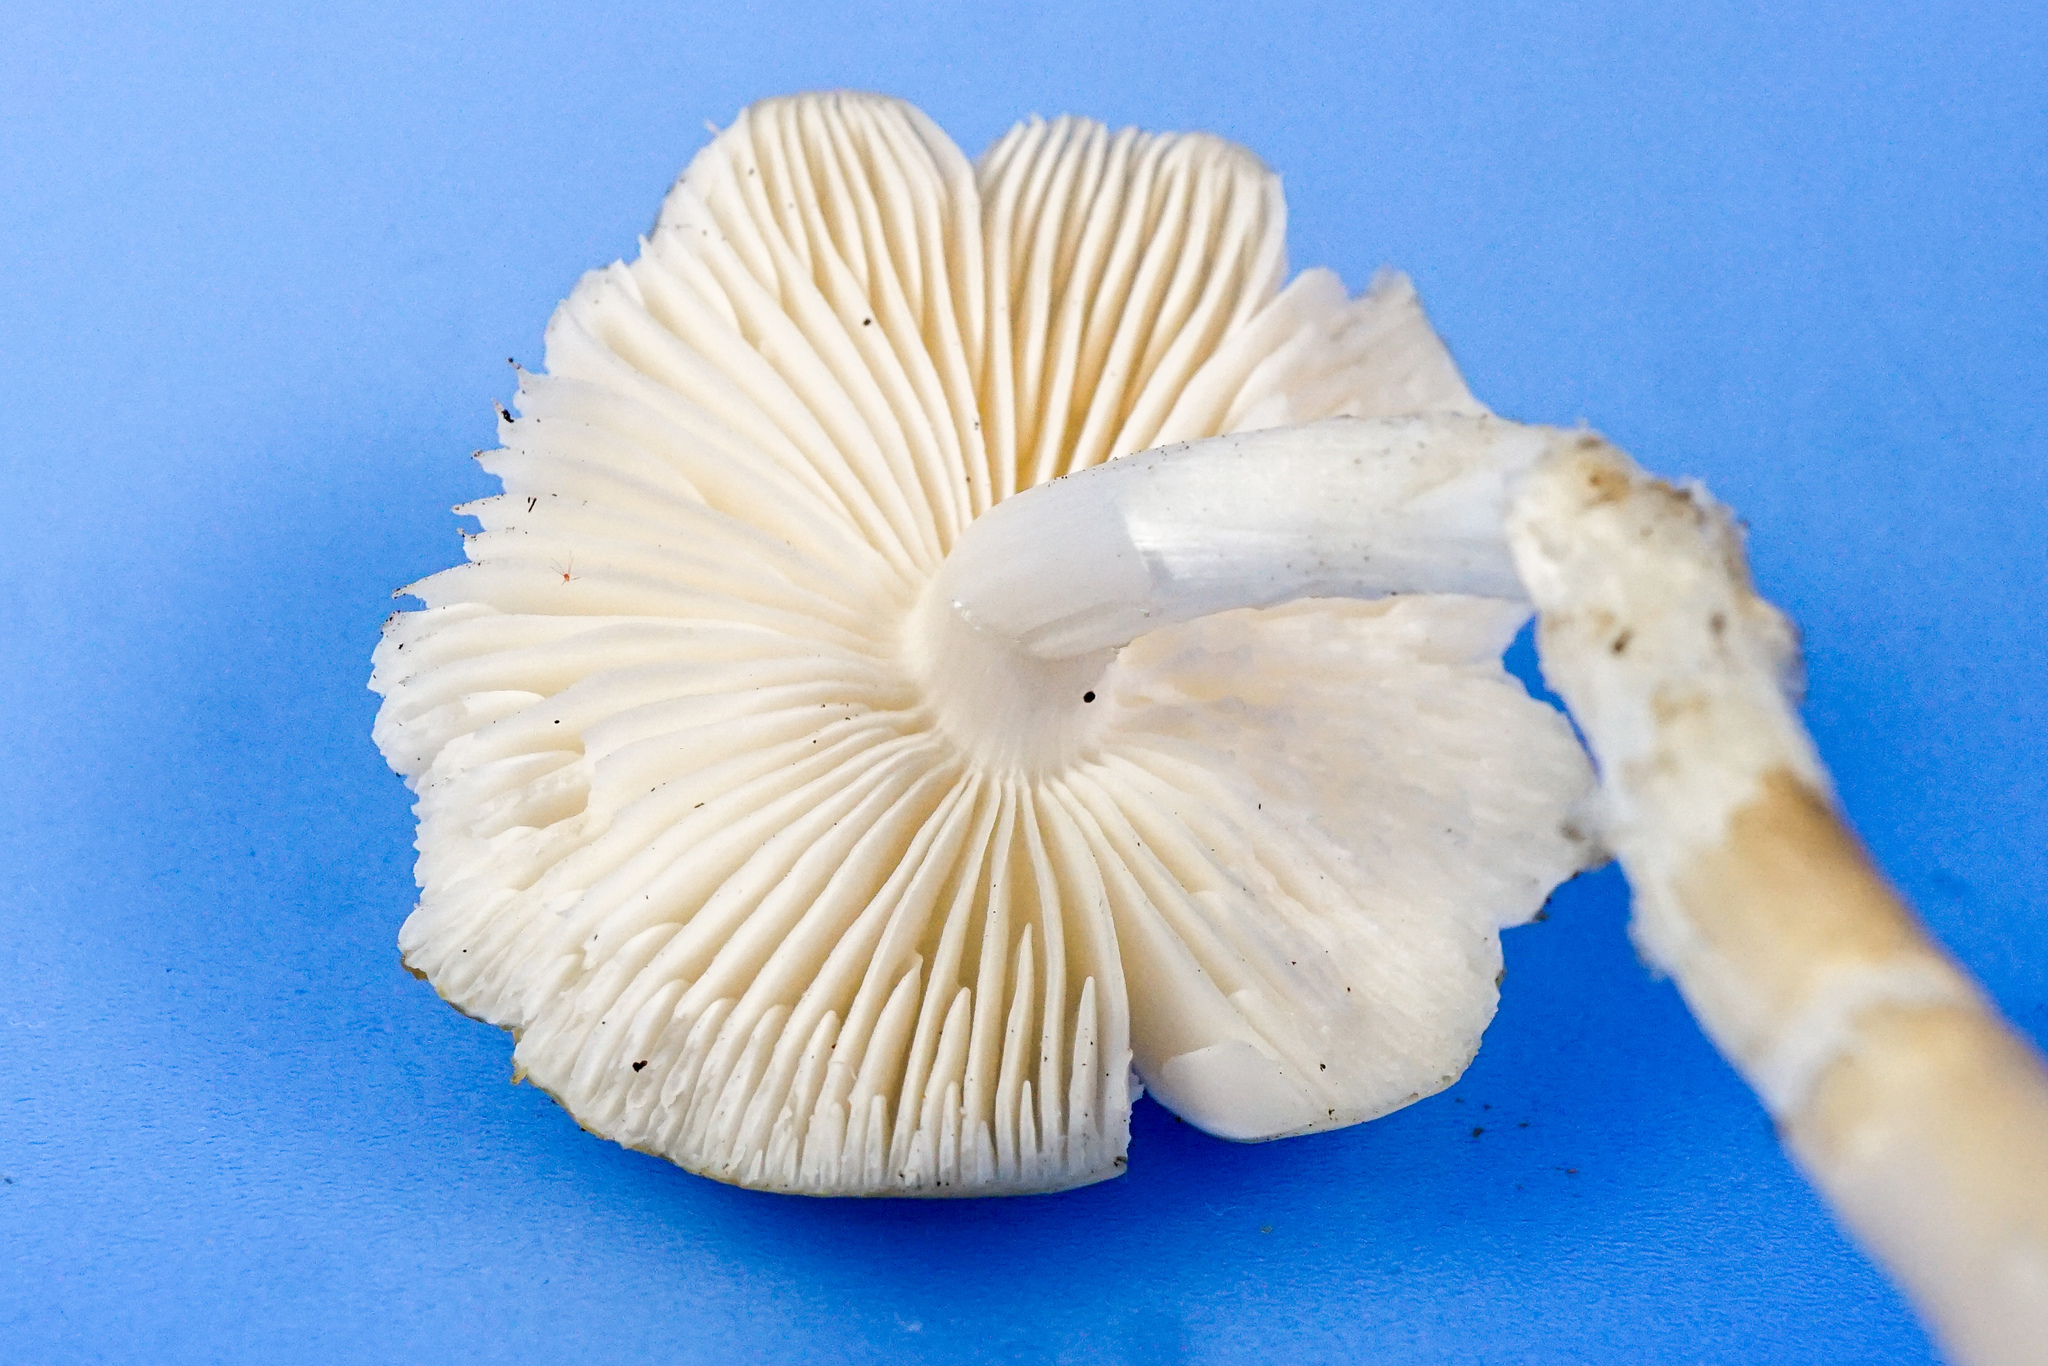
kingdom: Fungi
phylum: Basidiomycota
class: Agaricomycetes
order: Agaricales
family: Physalacriaceae
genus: Hymenopellis
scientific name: Hymenopellis sinapicolor
